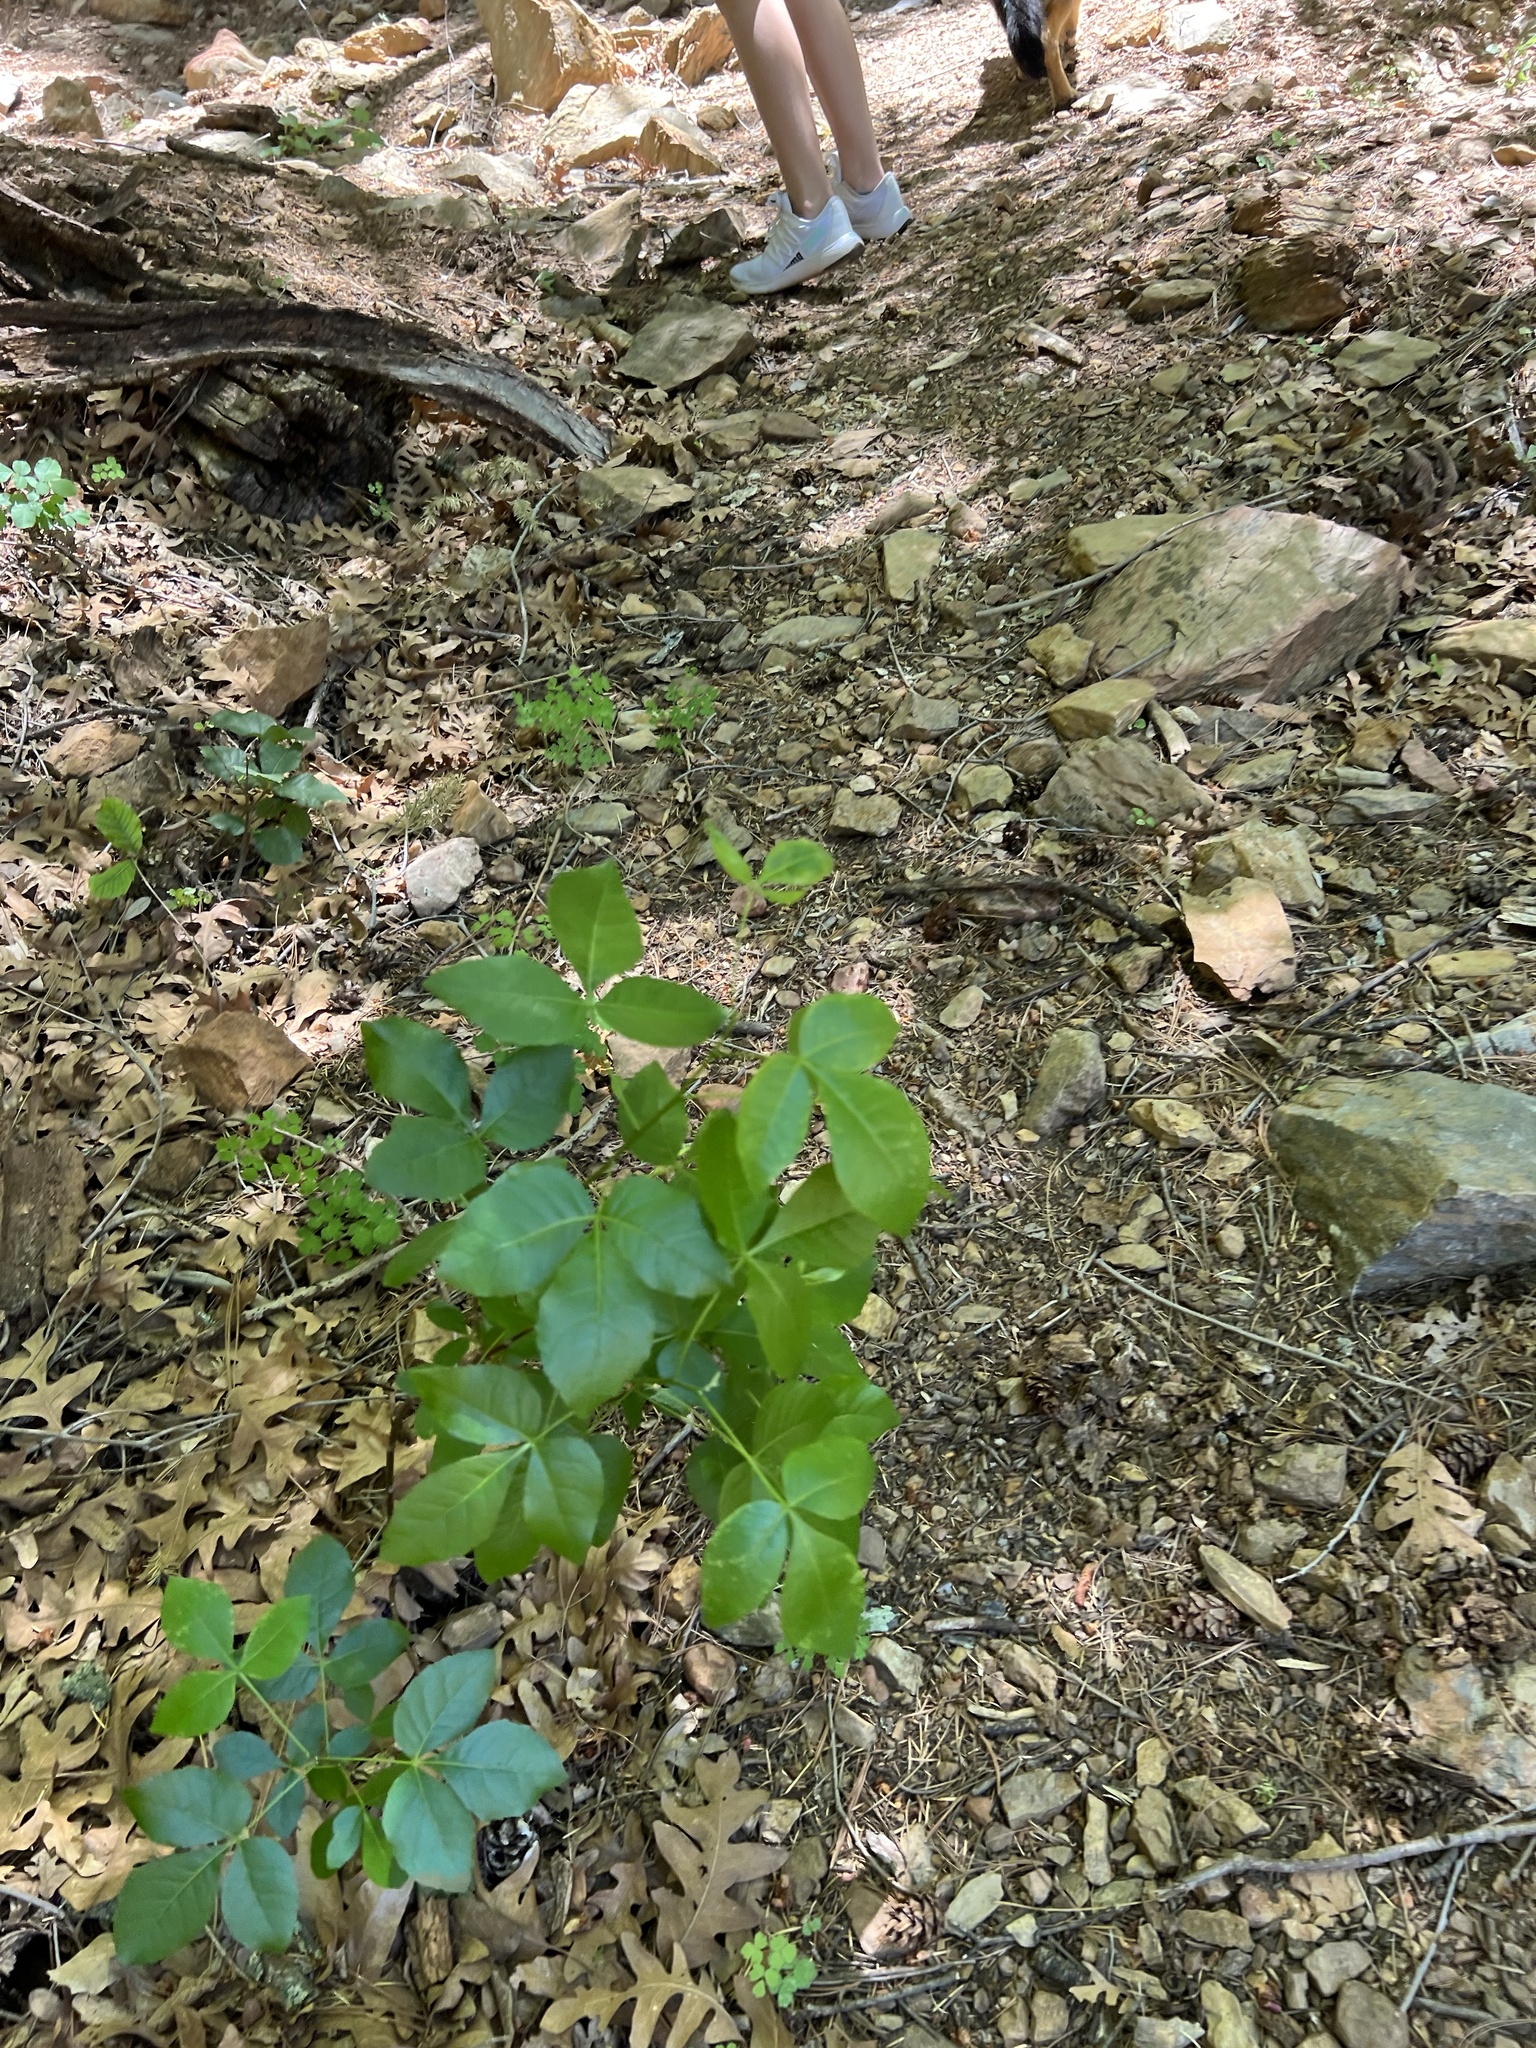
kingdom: Plantae
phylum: Tracheophyta
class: Magnoliopsida
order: Sapindales
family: Rutaceae
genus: Ptelea
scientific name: Ptelea trifoliata
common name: Common hop-tree
